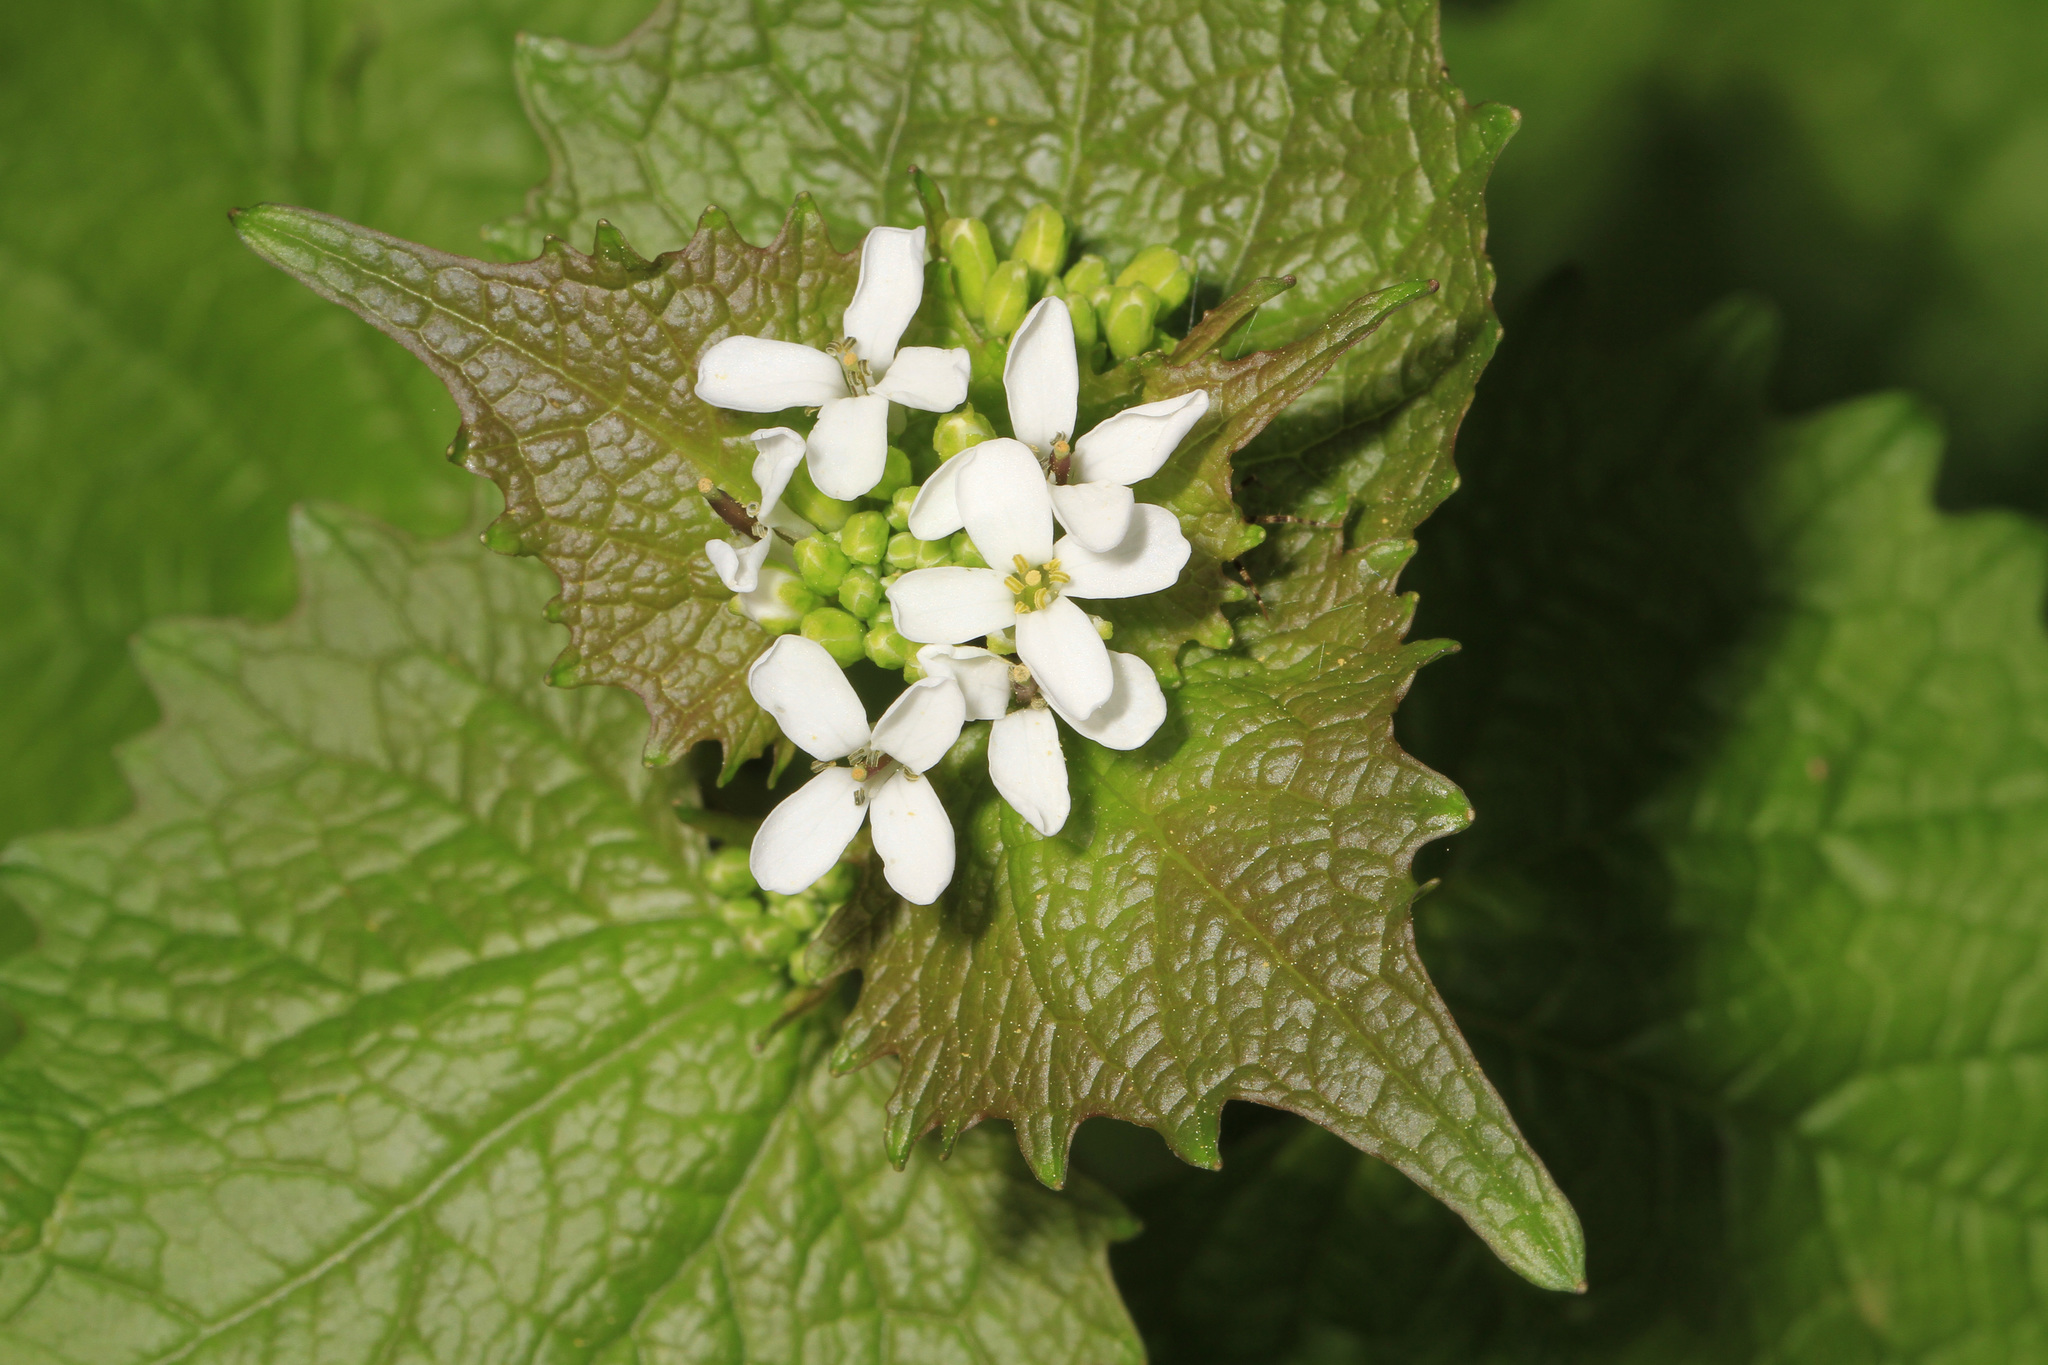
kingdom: Plantae
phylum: Tracheophyta
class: Magnoliopsida
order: Brassicales
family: Brassicaceae
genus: Alliaria
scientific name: Alliaria petiolata
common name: Garlic mustard
